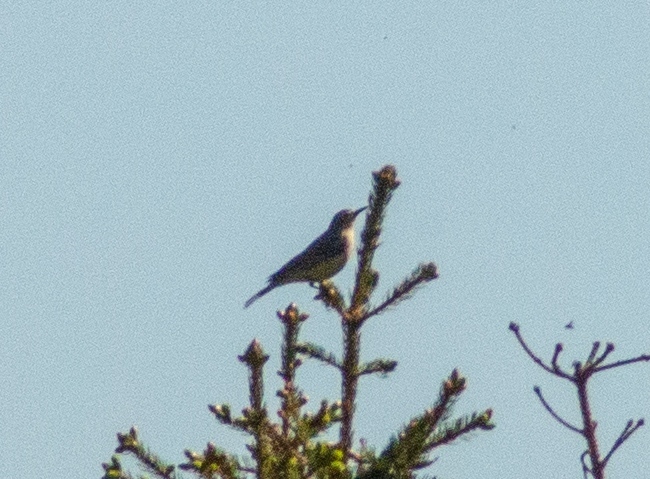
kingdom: Animalia
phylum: Chordata
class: Aves
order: Passeriformes
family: Motacillidae
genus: Anthus
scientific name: Anthus spinoletta
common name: Water pipit
